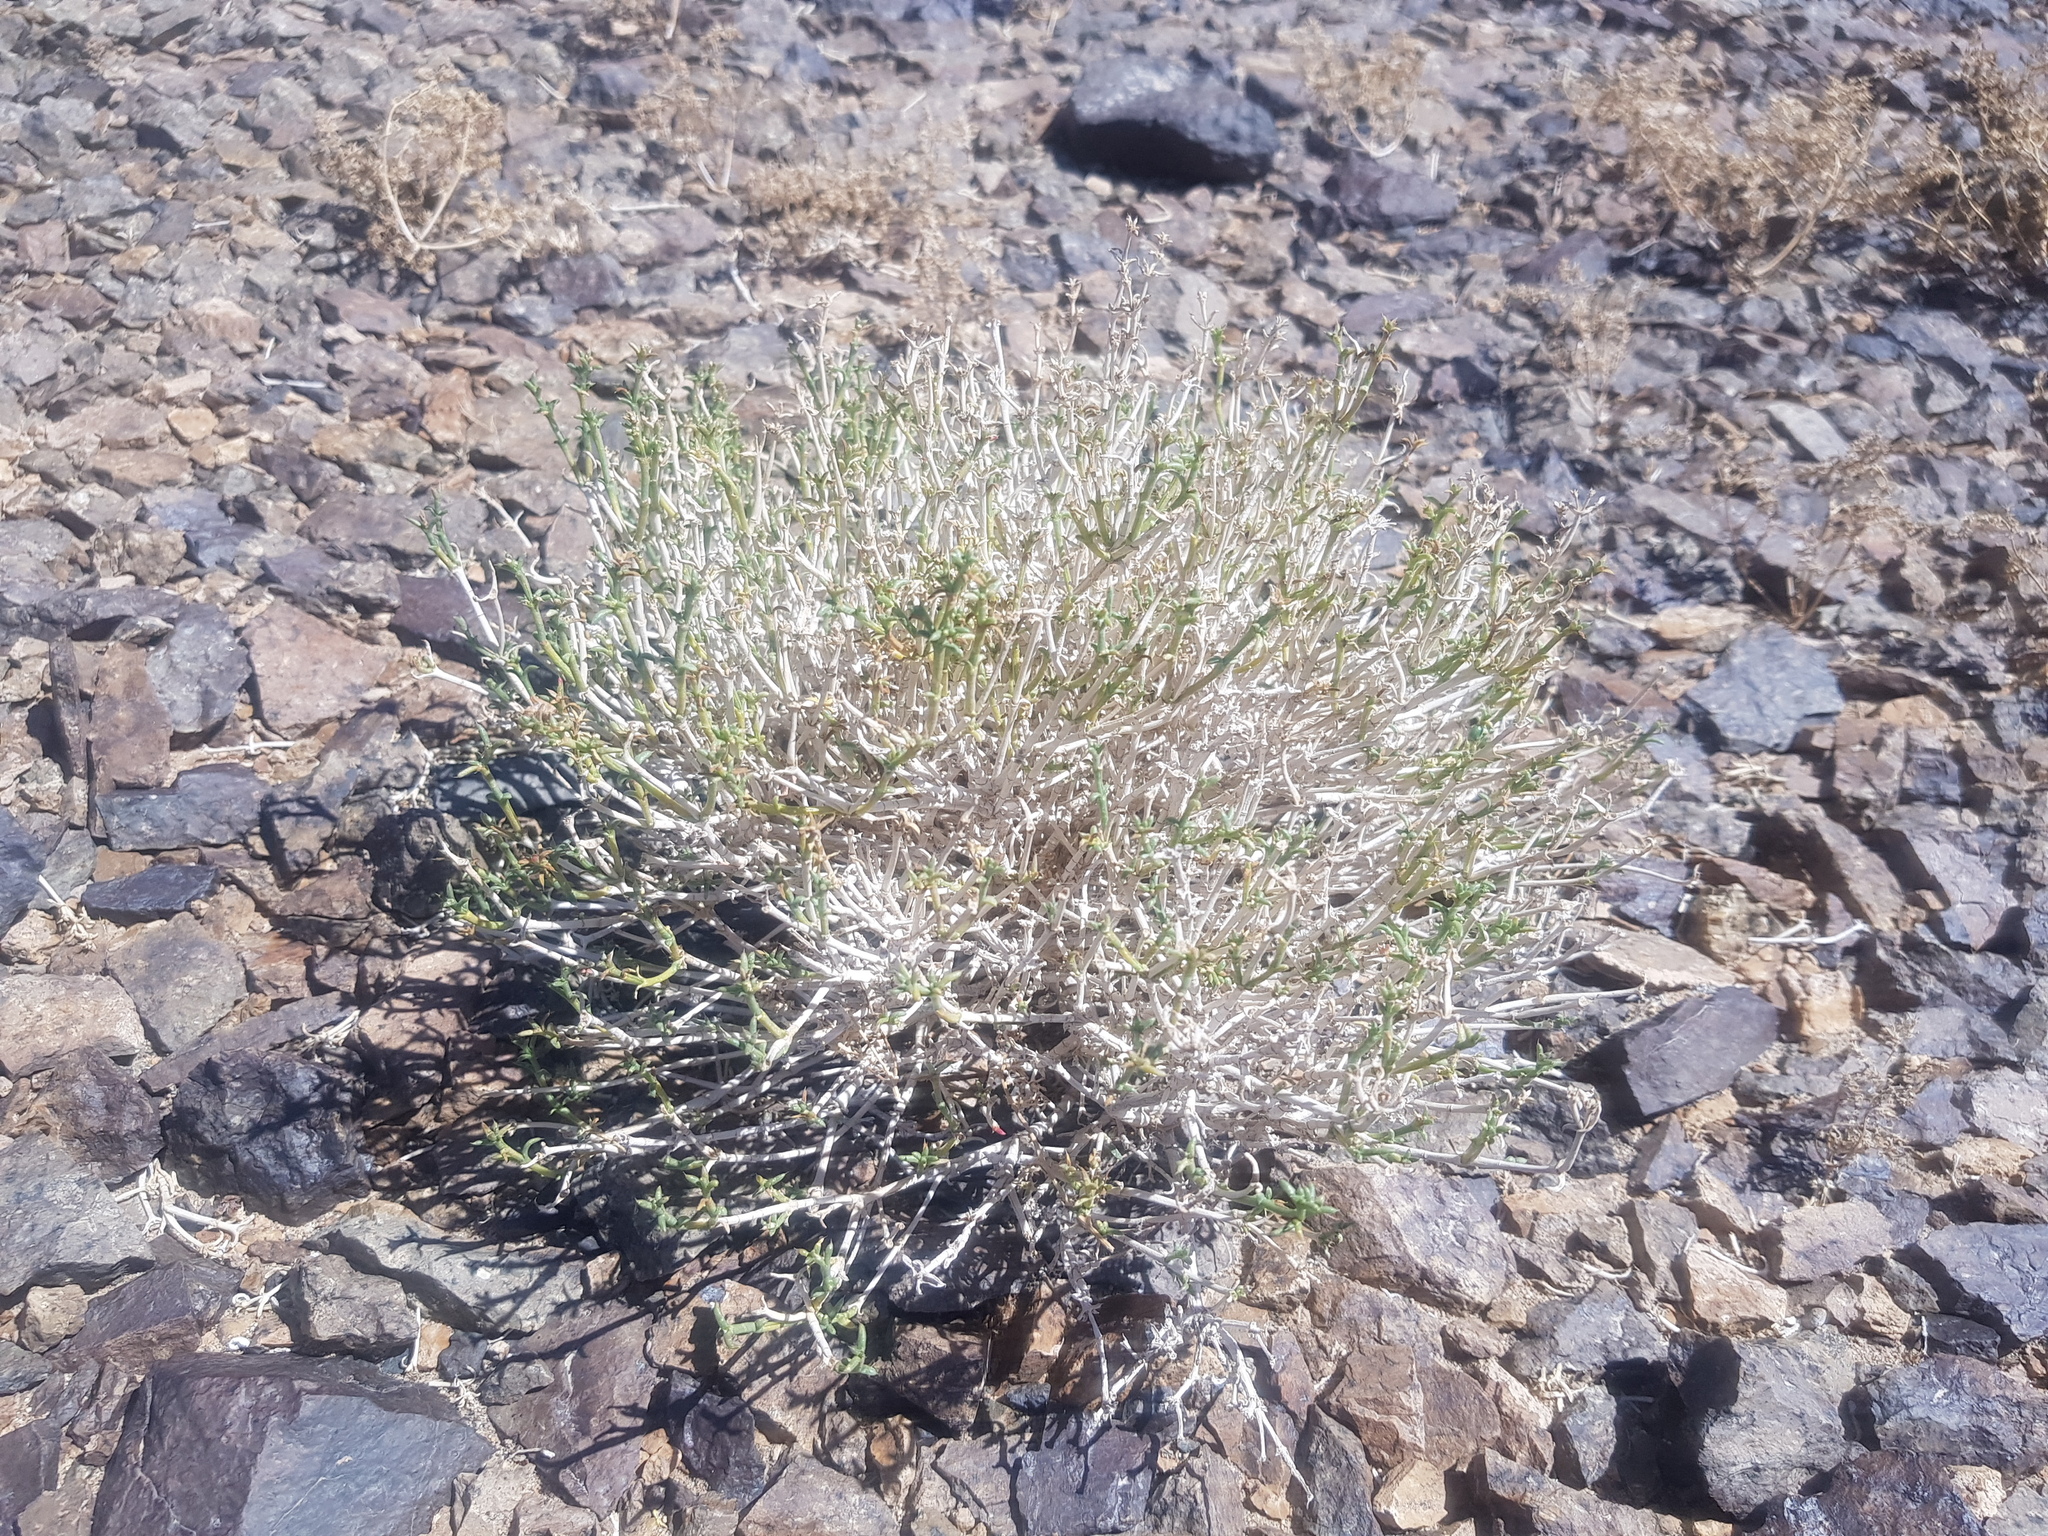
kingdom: Plantae
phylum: Tracheophyta
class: Magnoliopsida
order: Caryophyllales
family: Amaranthaceae
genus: Anabasis
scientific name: Anabasis brevifolia
